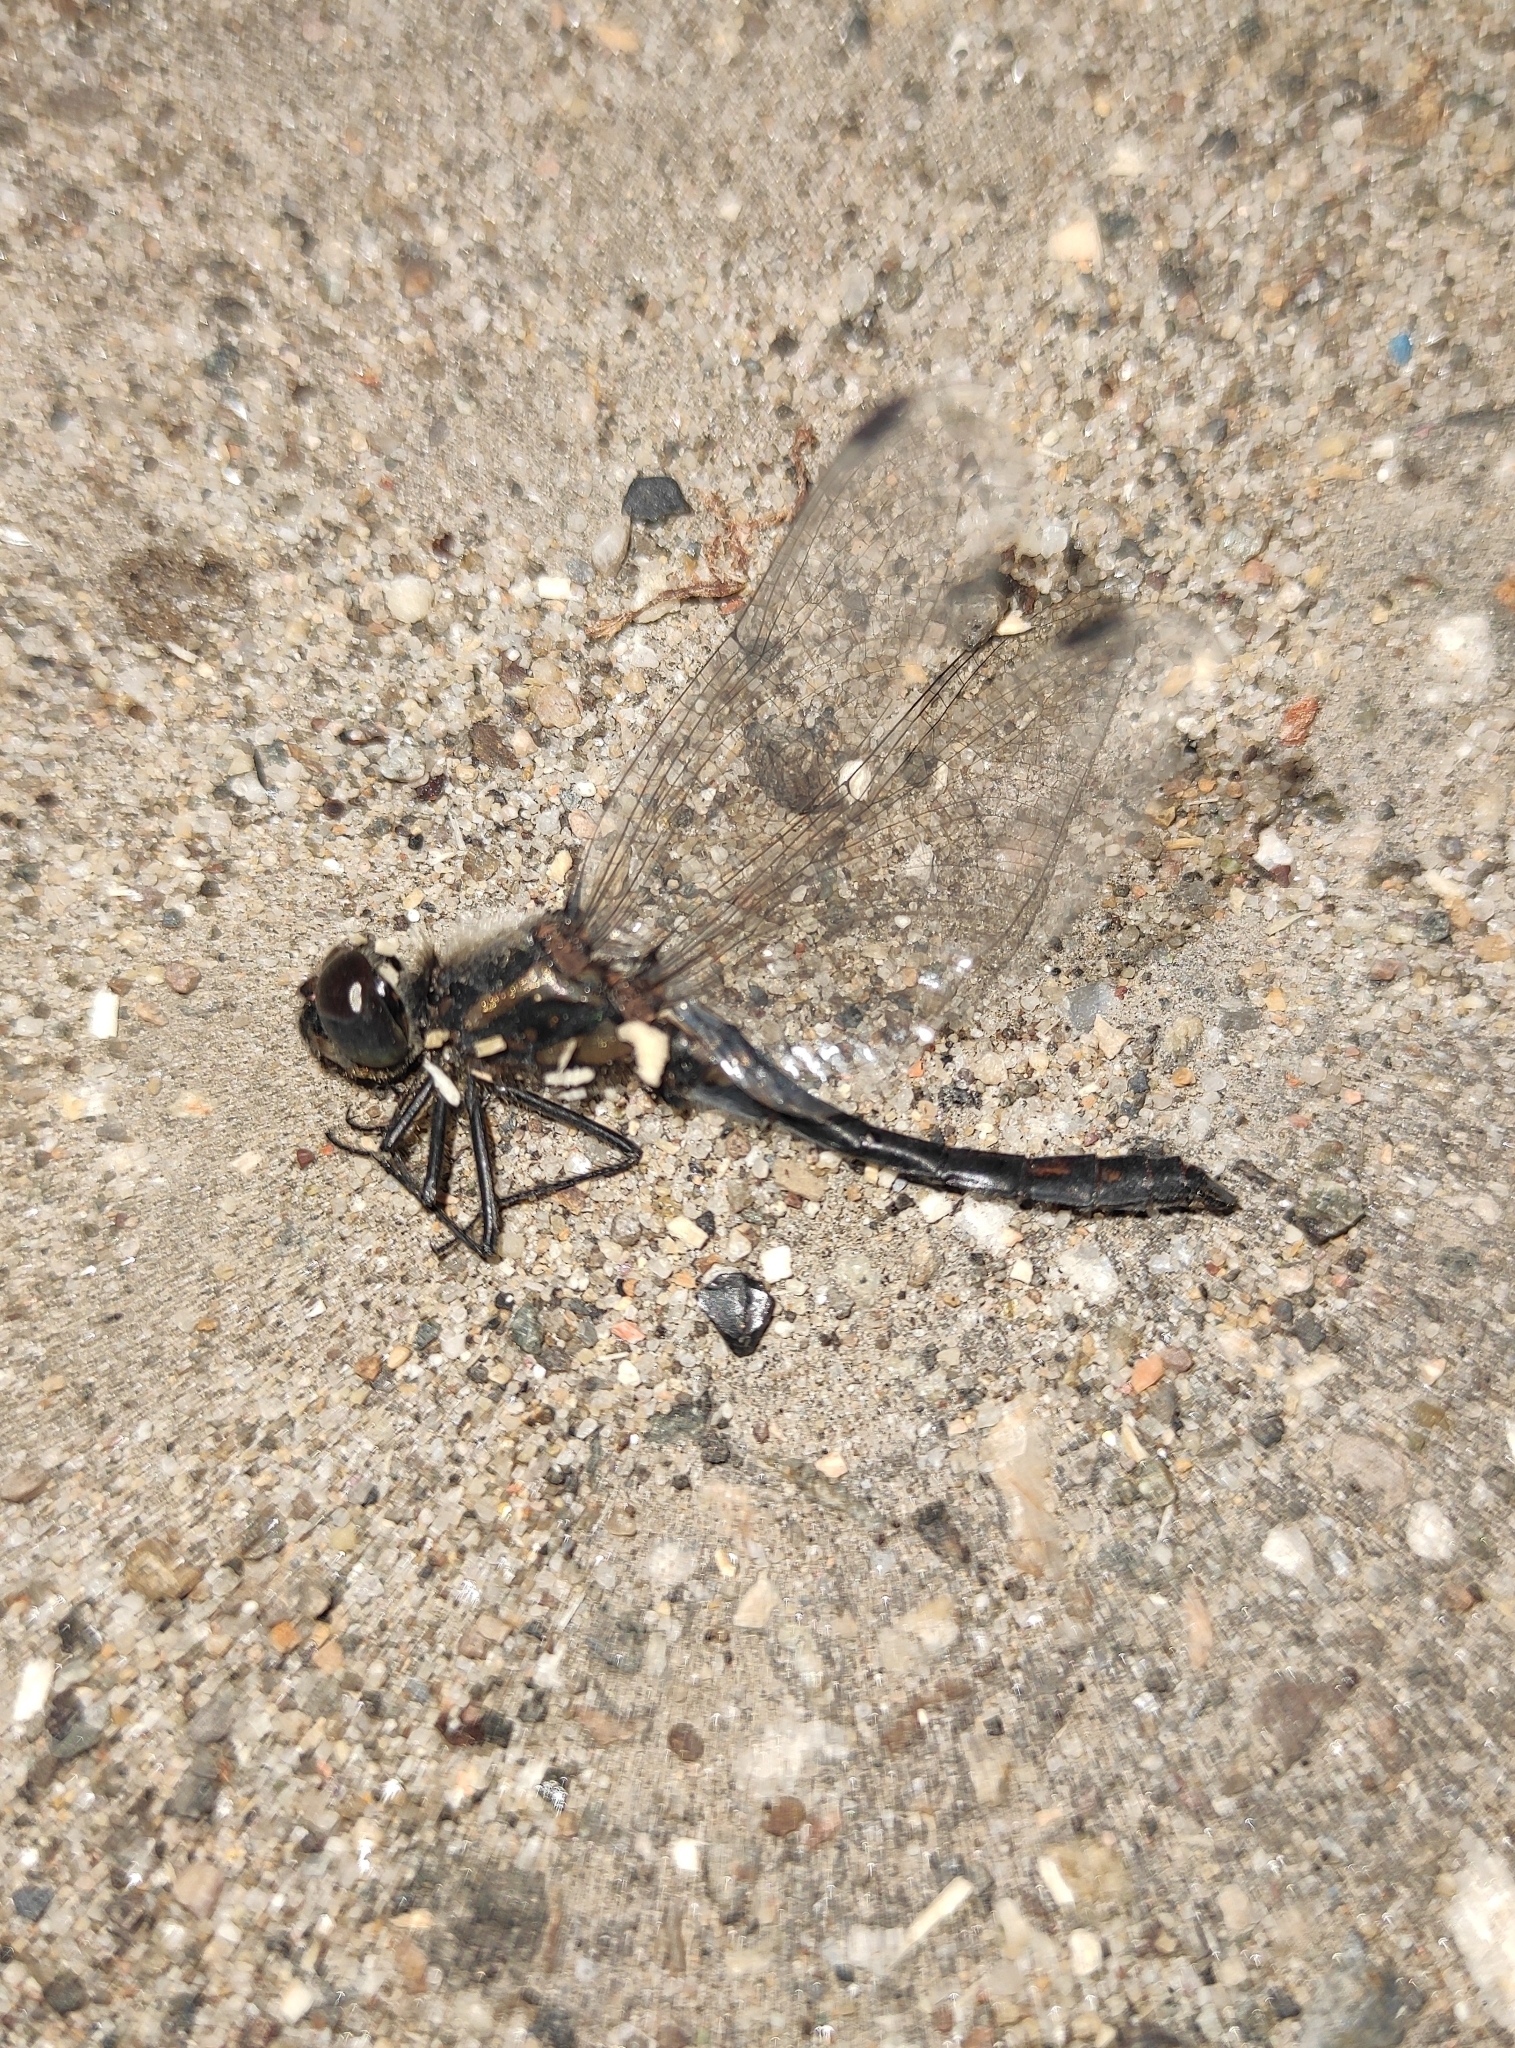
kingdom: Animalia
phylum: Arthropoda
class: Insecta
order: Odonata
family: Libellulidae
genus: Sympetrum
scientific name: Sympetrum danae
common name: Black darter
